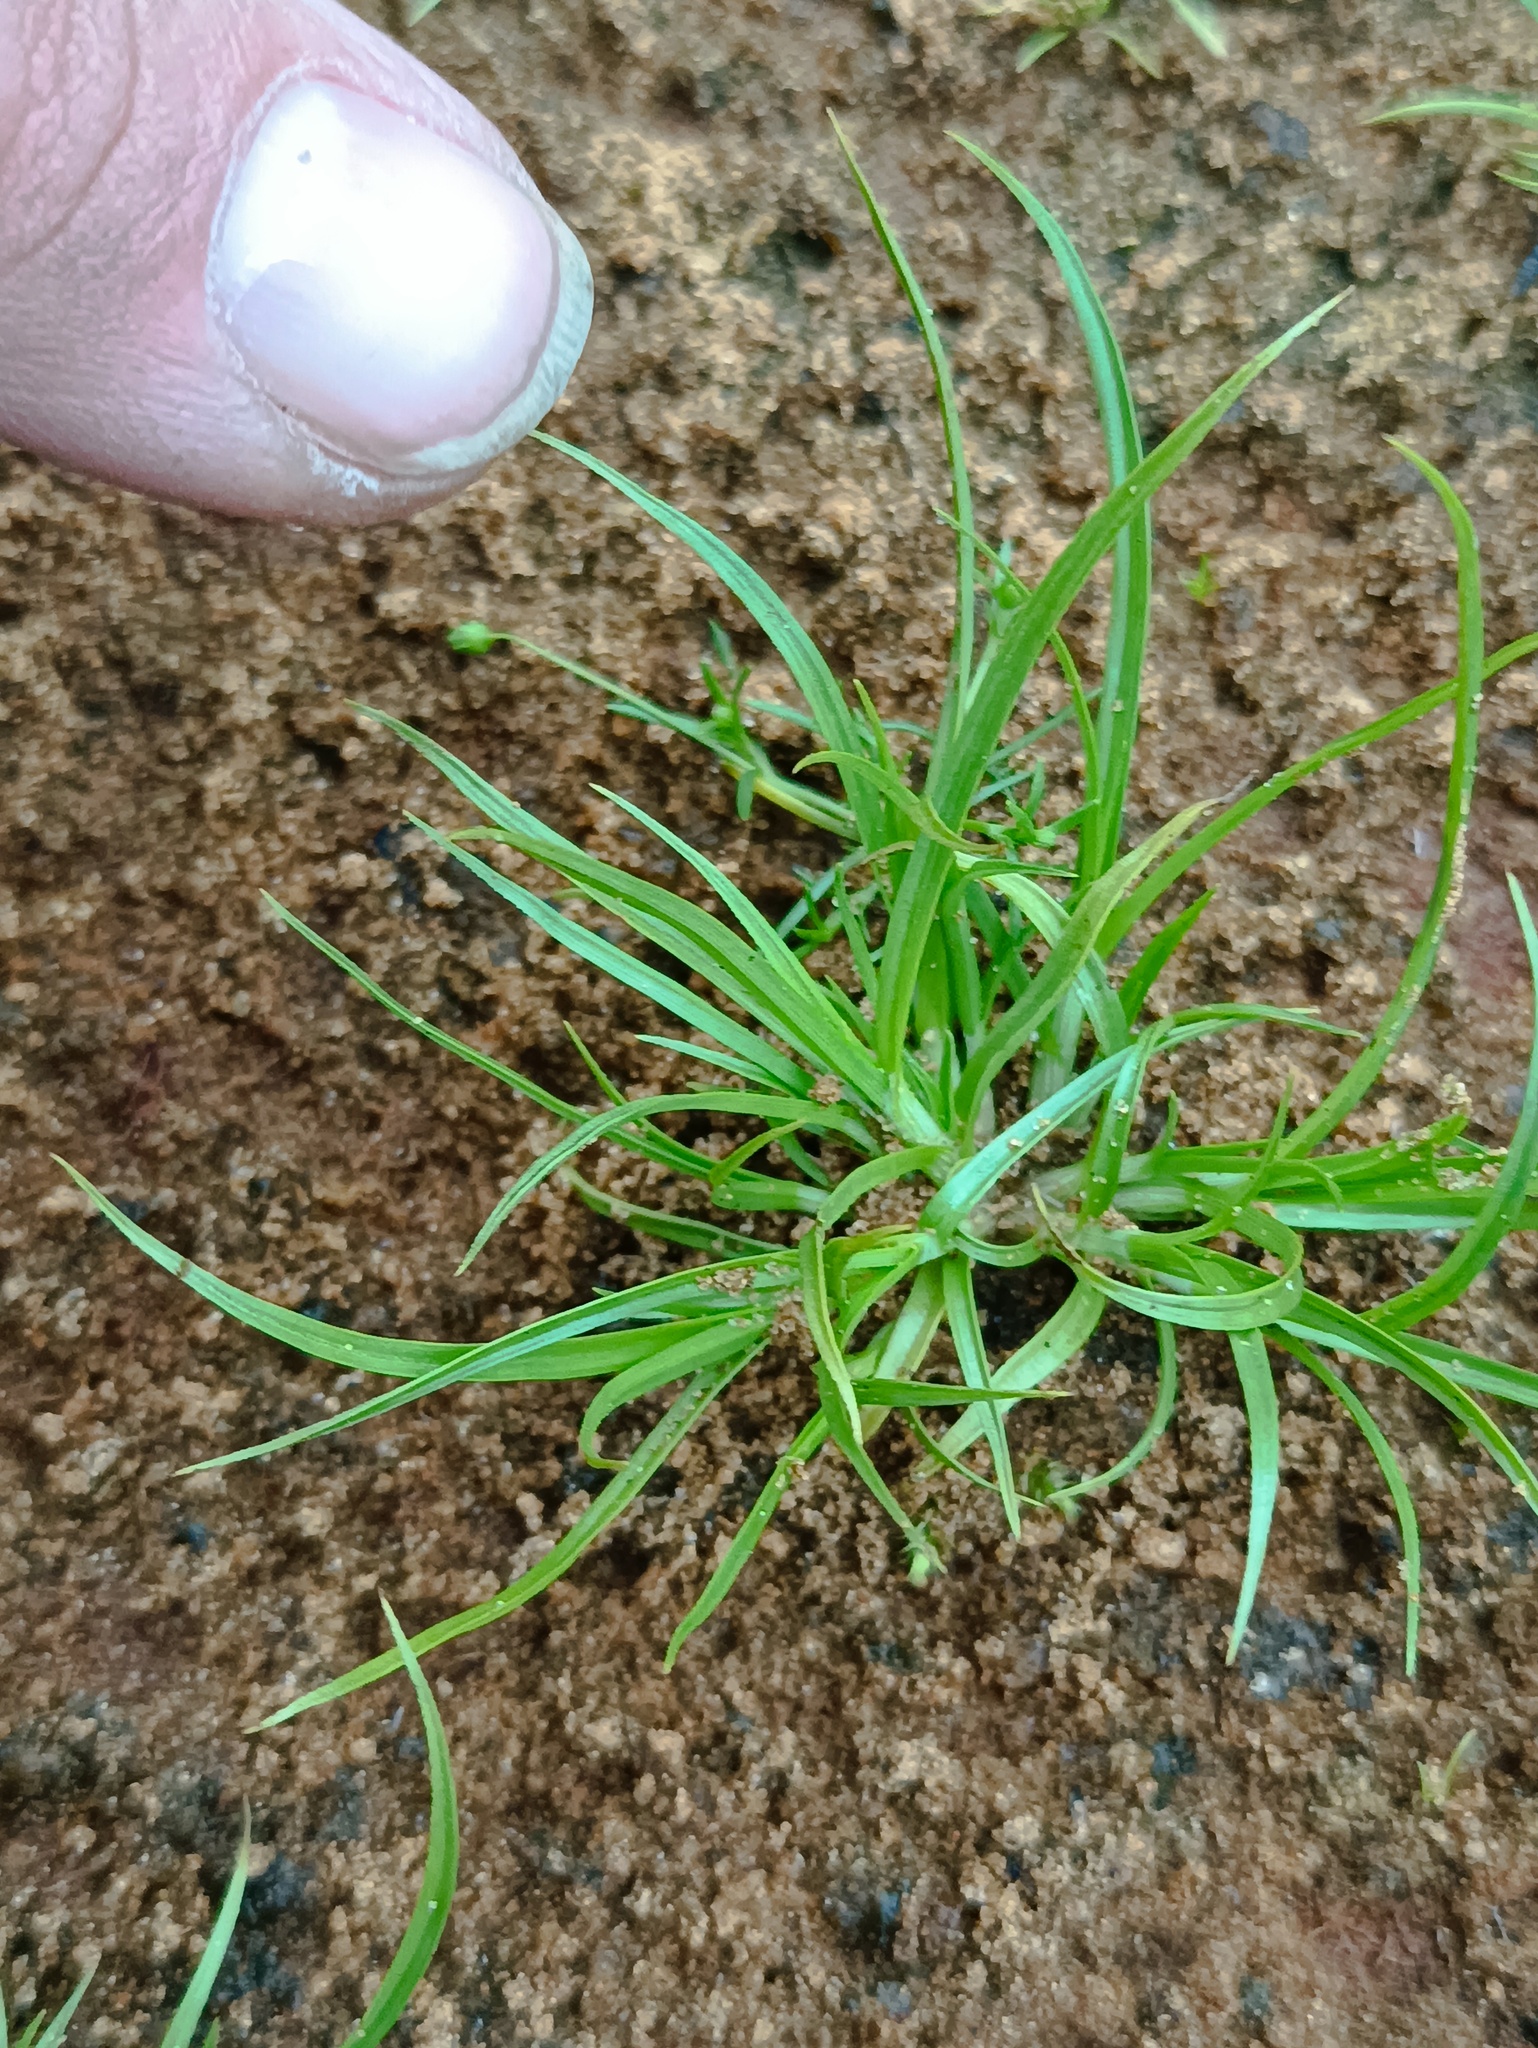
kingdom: Plantae
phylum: Tracheophyta
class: Liliopsida
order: Poales
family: Cyperaceae
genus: Cyperus
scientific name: Cyperus fuscus
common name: Brown galingale
